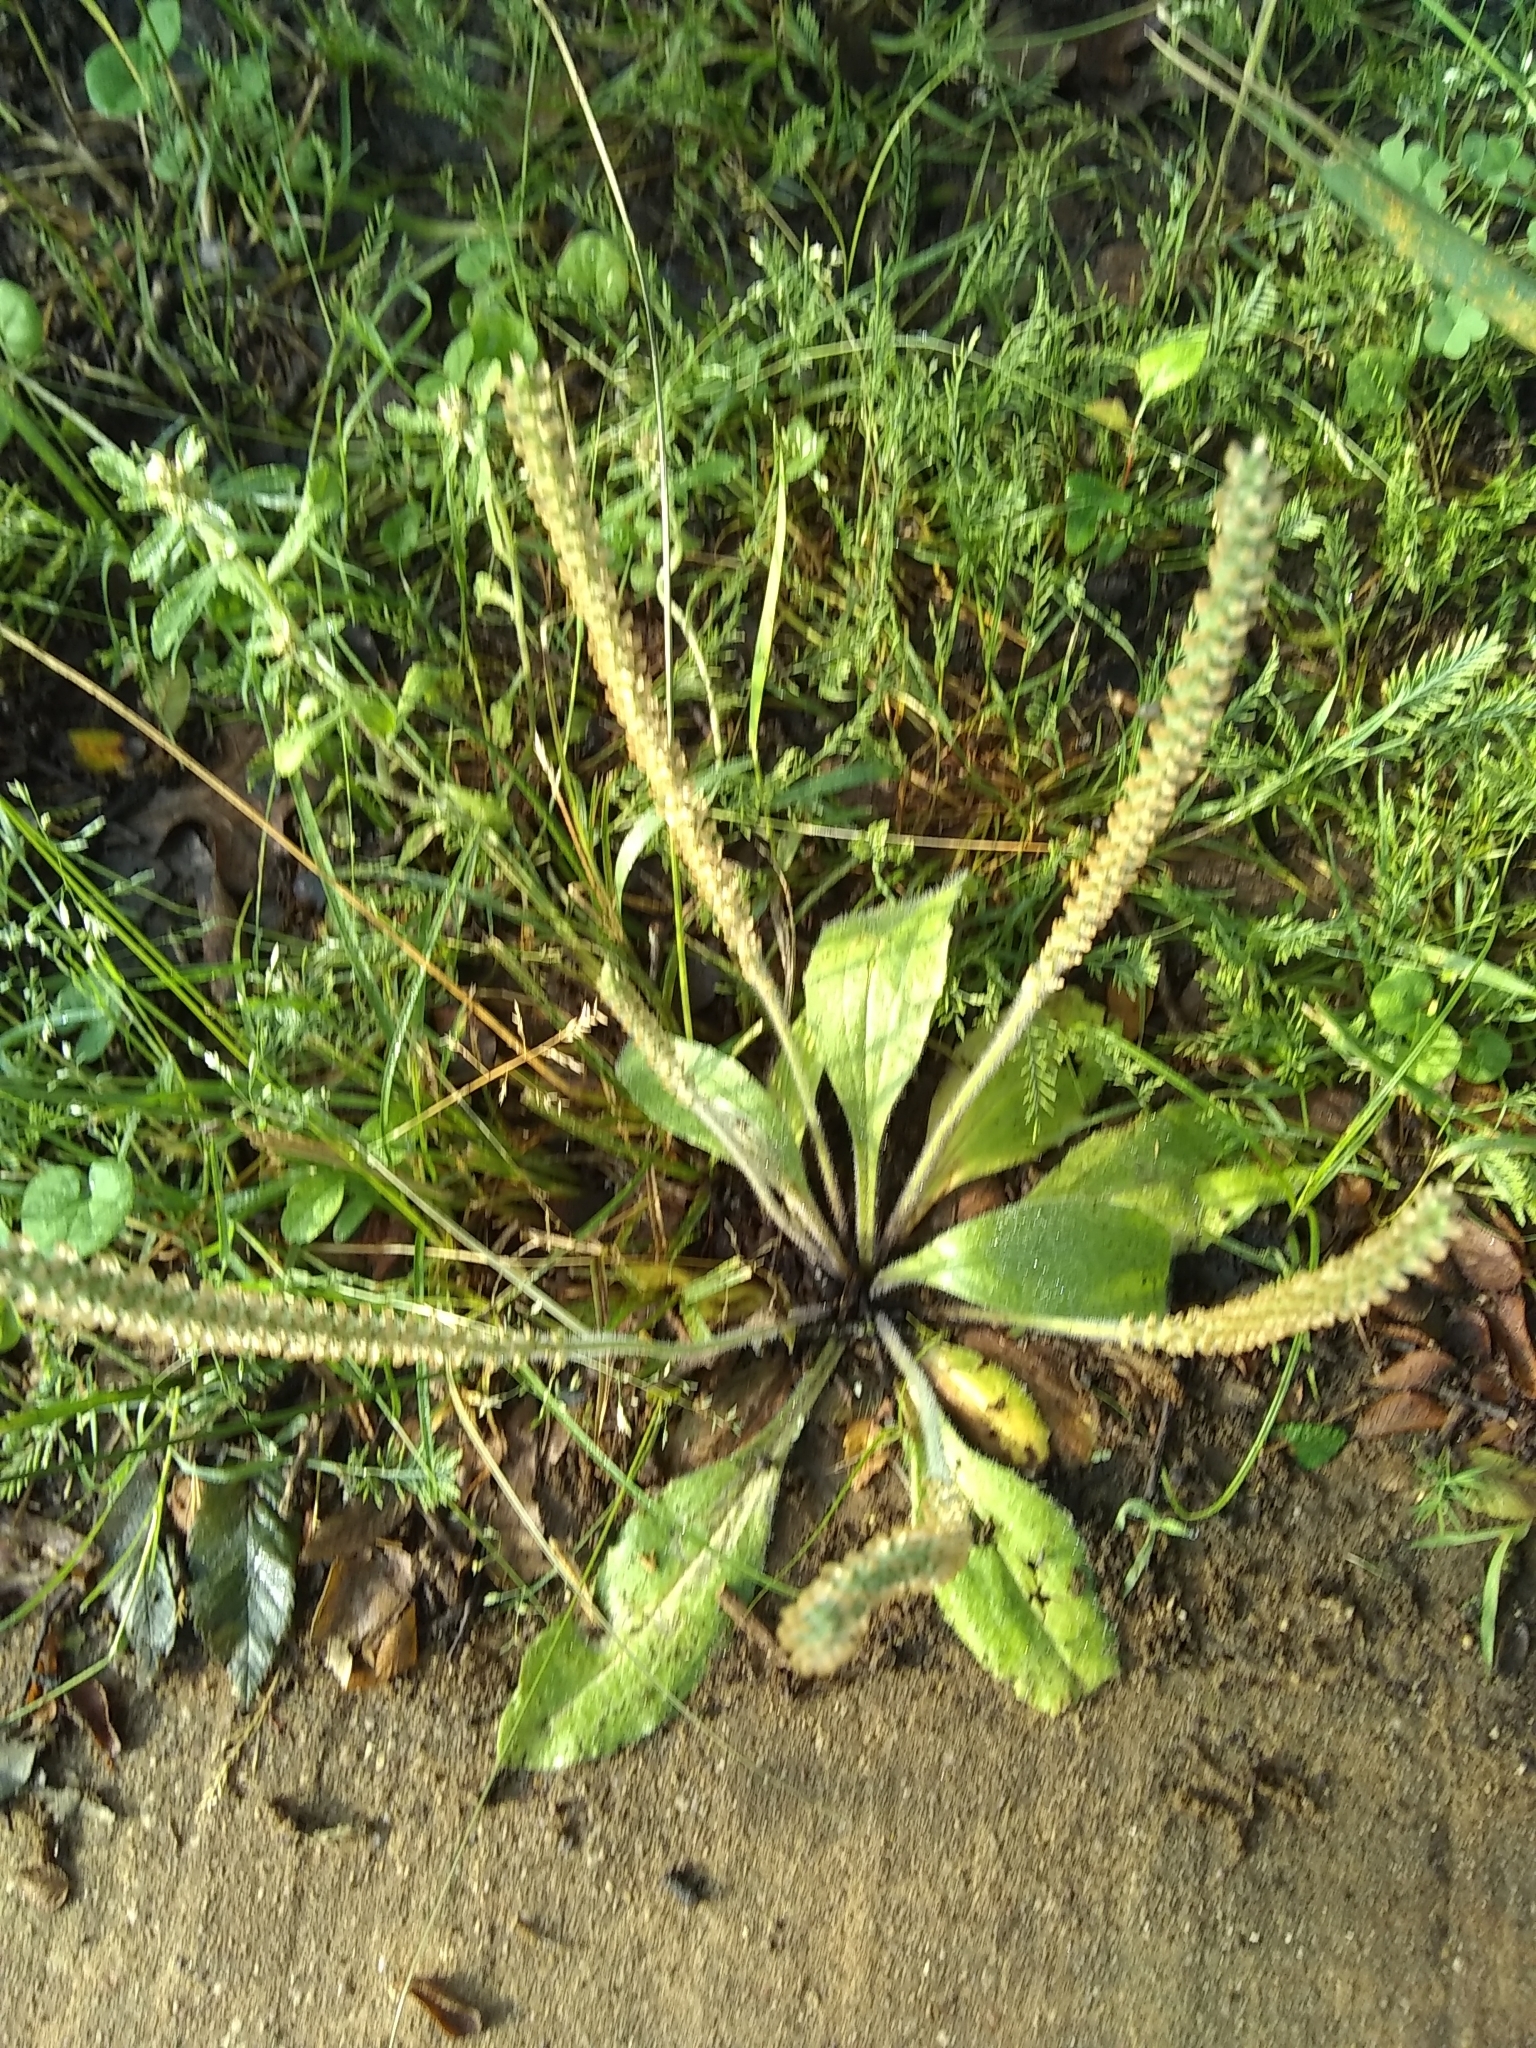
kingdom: Plantae
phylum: Tracheophyta
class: Magnoliopsida
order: Lamiales
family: Plantaginaceae
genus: Plantago
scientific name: Plantago virginica
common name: Hoary plantain
